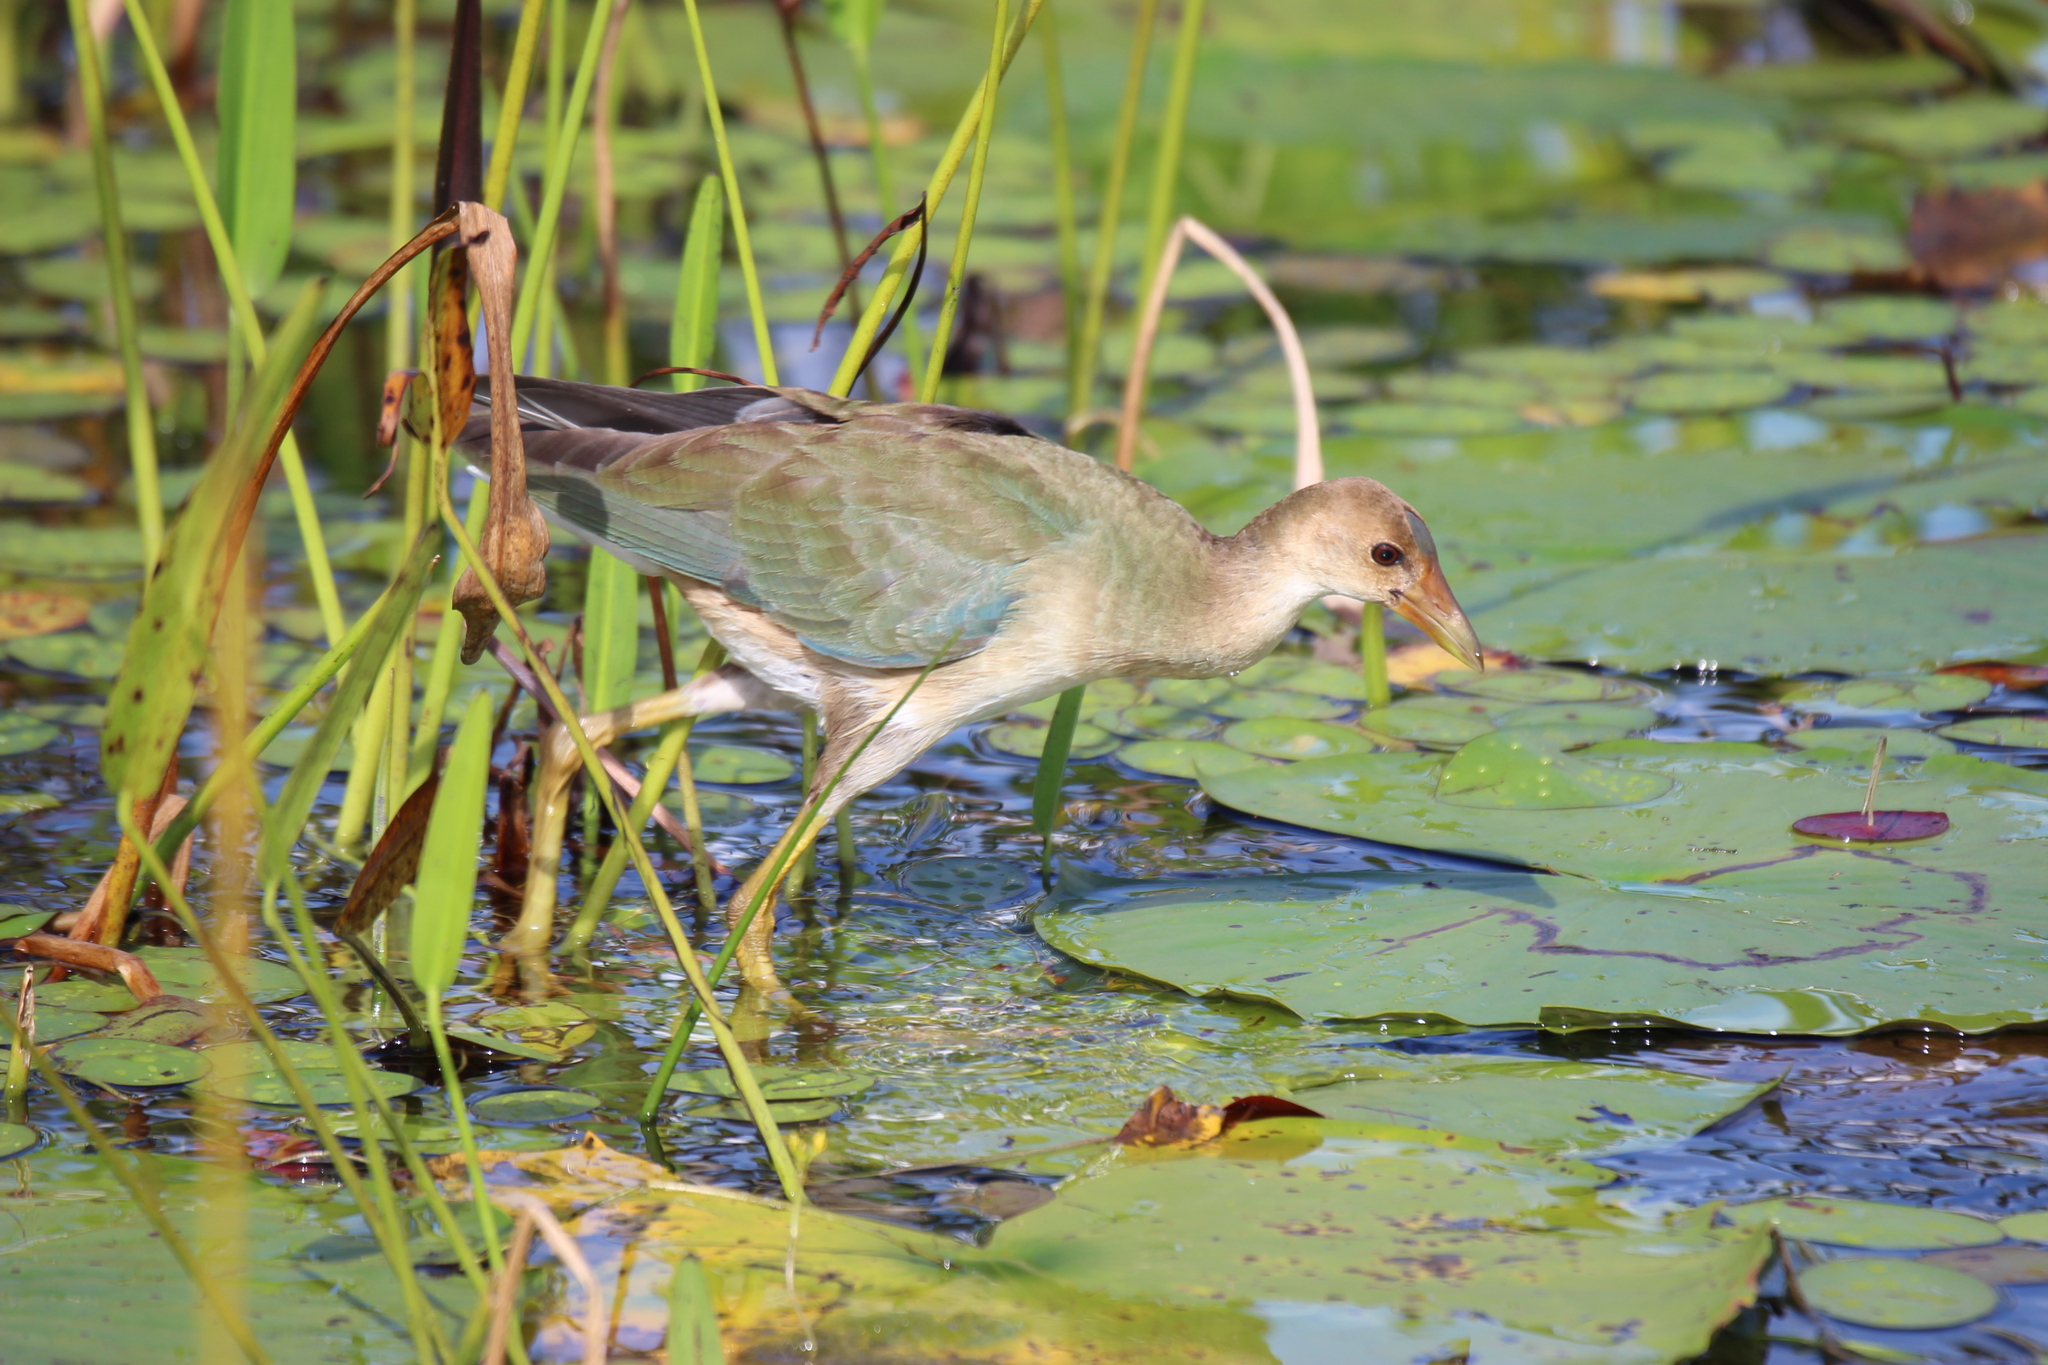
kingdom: Animalia
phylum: Chordata
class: Aves
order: Gruiformes
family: Rallidae
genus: Porphyrio
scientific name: Porphyrio martinica
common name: Purple gallinule
